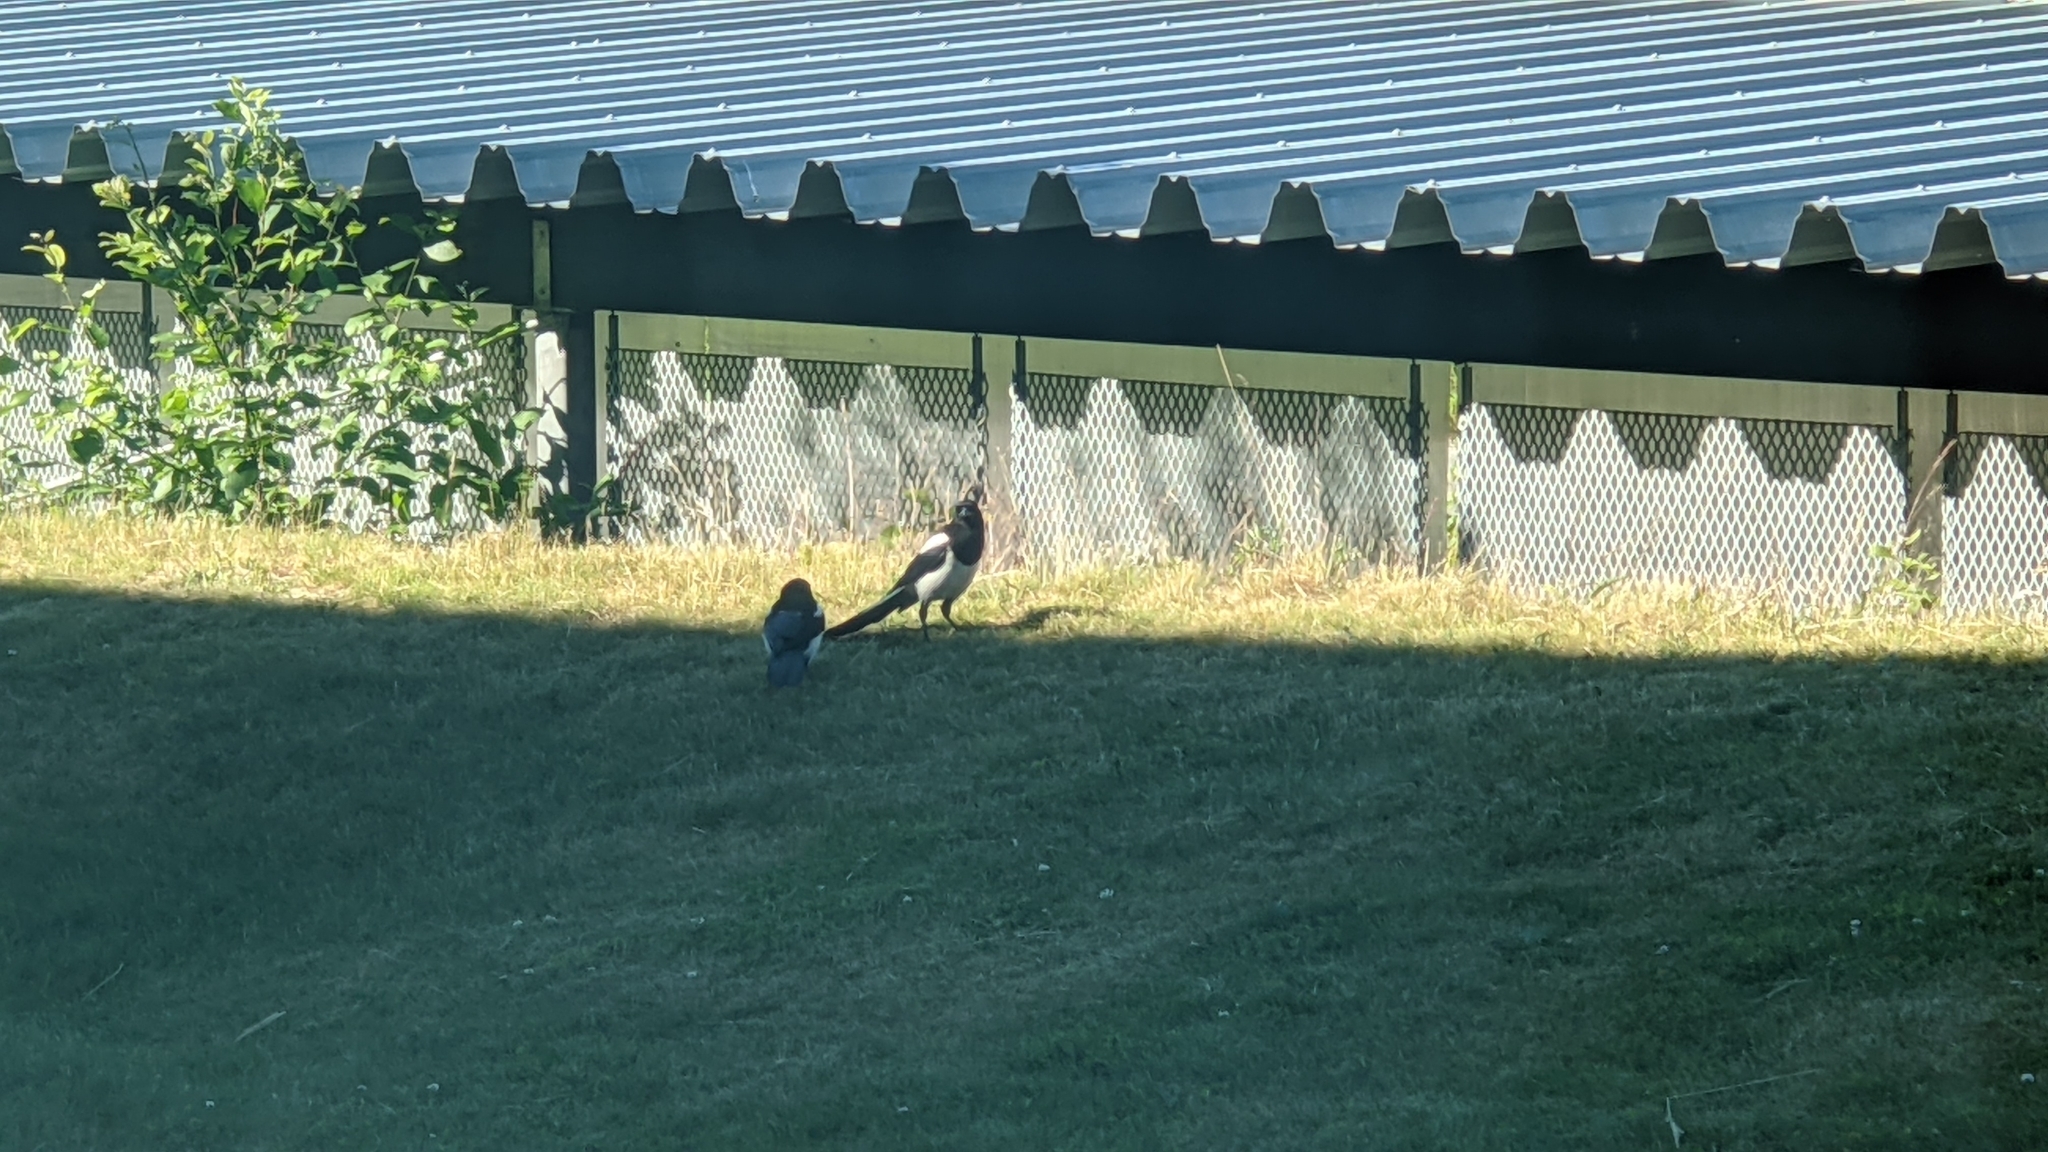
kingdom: Animalia
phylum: Chordata
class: Aves
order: Passeriformes
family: Corvidae
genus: Pica
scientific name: Pica pica
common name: Eurasian magpie
